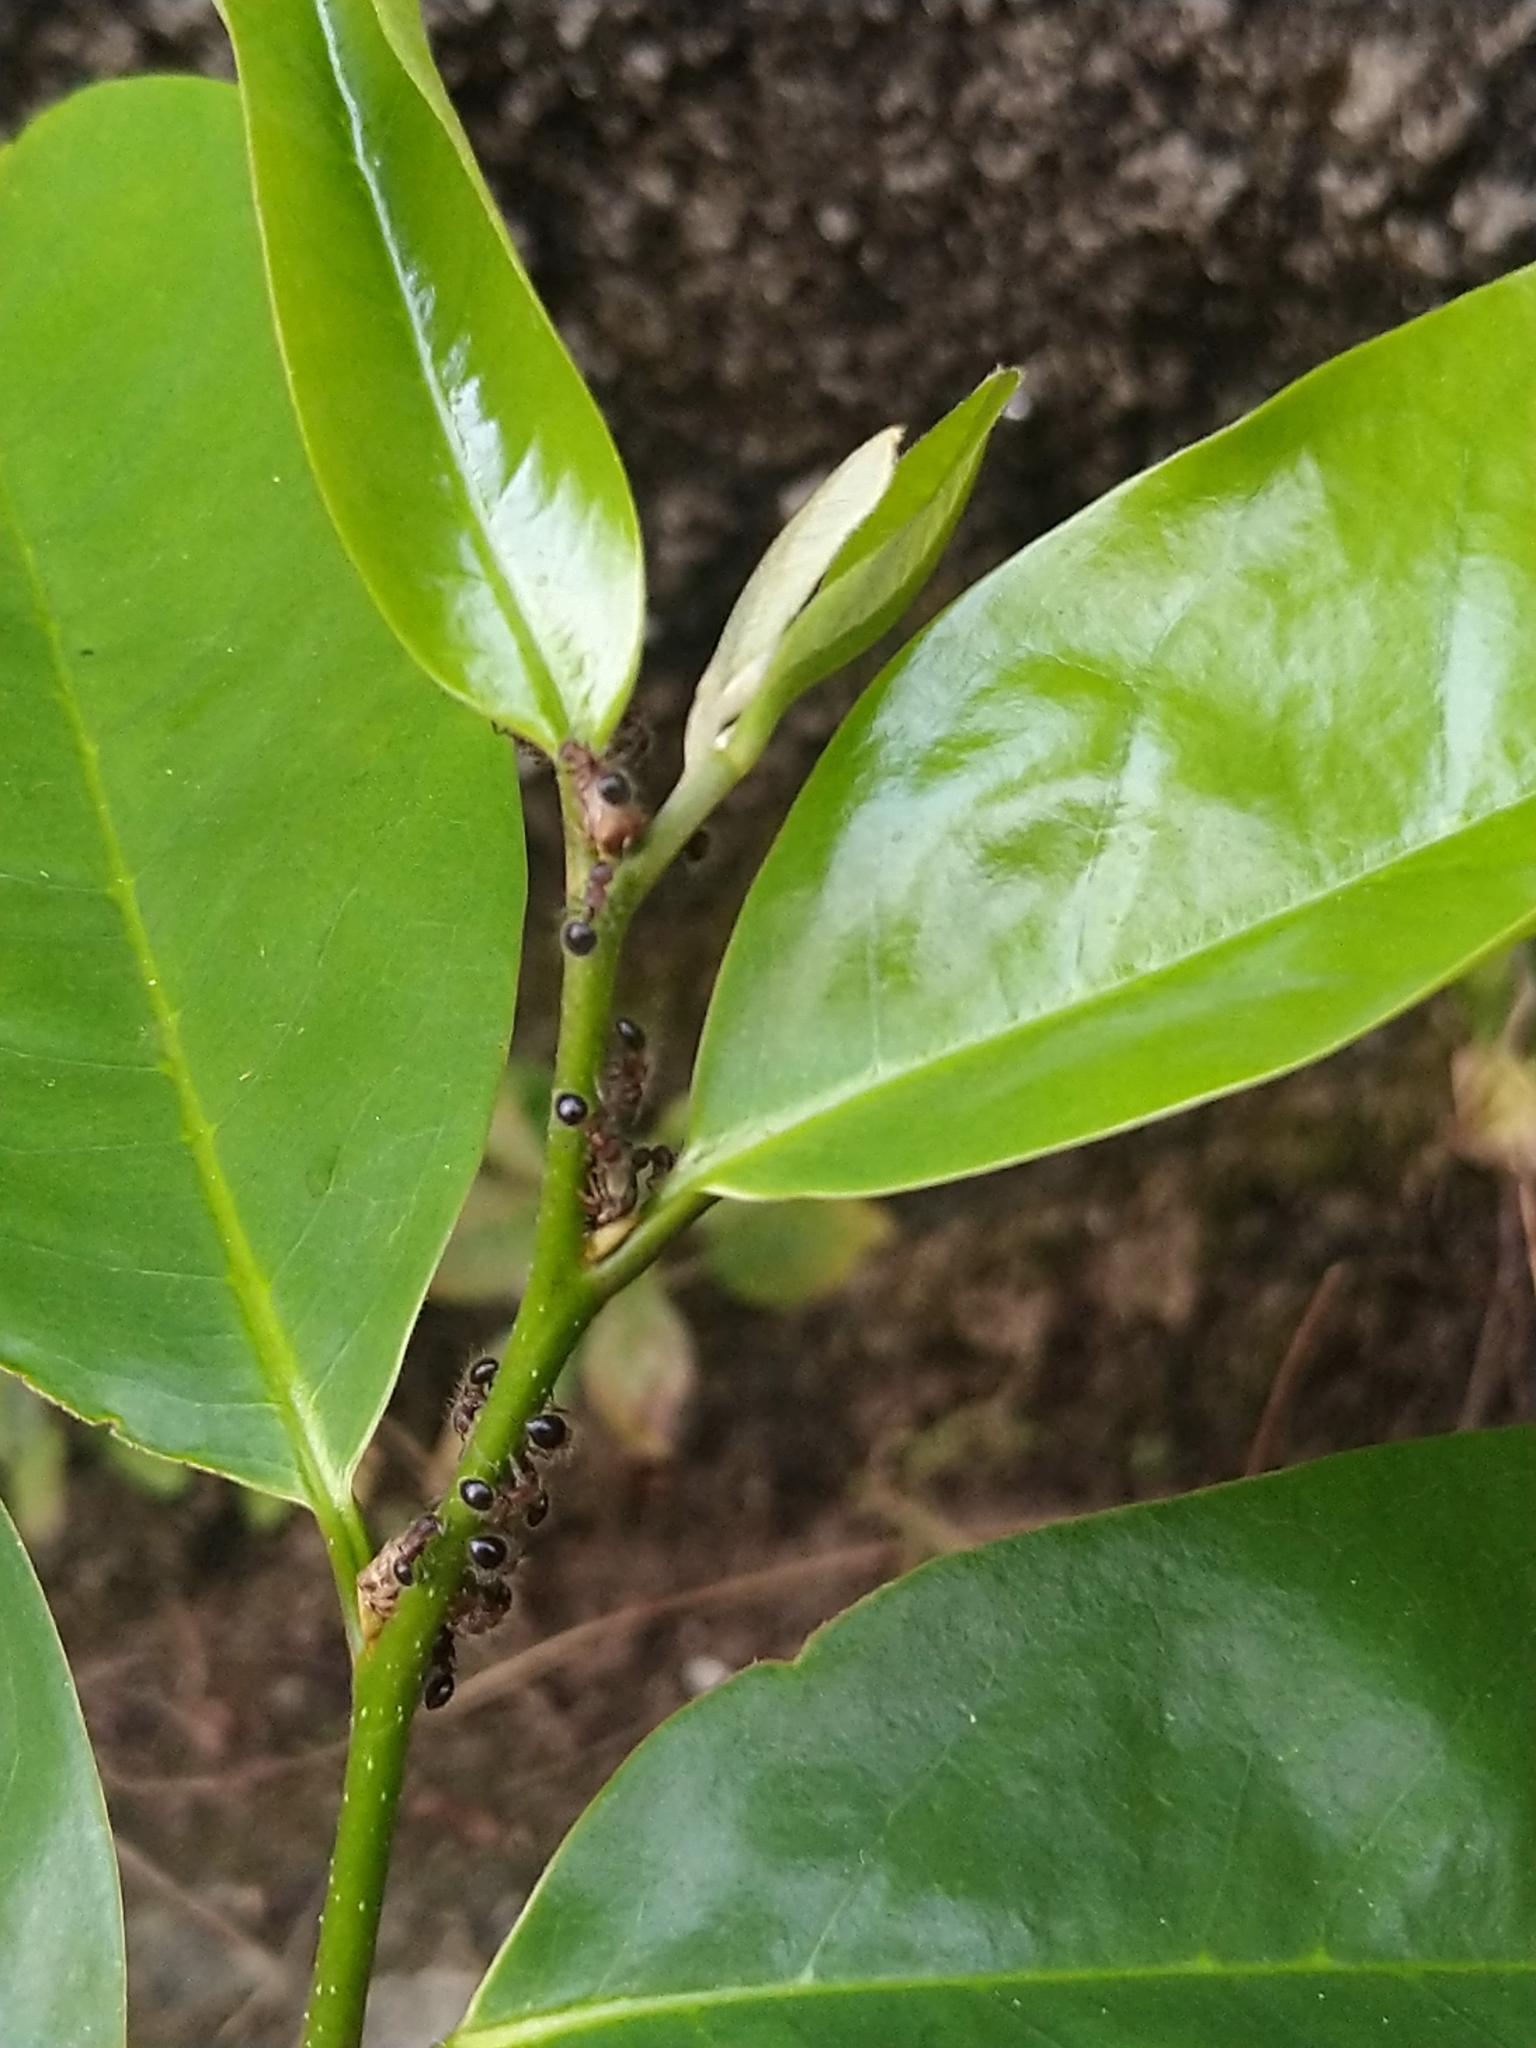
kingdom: Animalia
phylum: Arthropoda
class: Insecta
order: Hymenoptera
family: Formicidae
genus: Meranoplus
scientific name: Meranoplus bicolor
